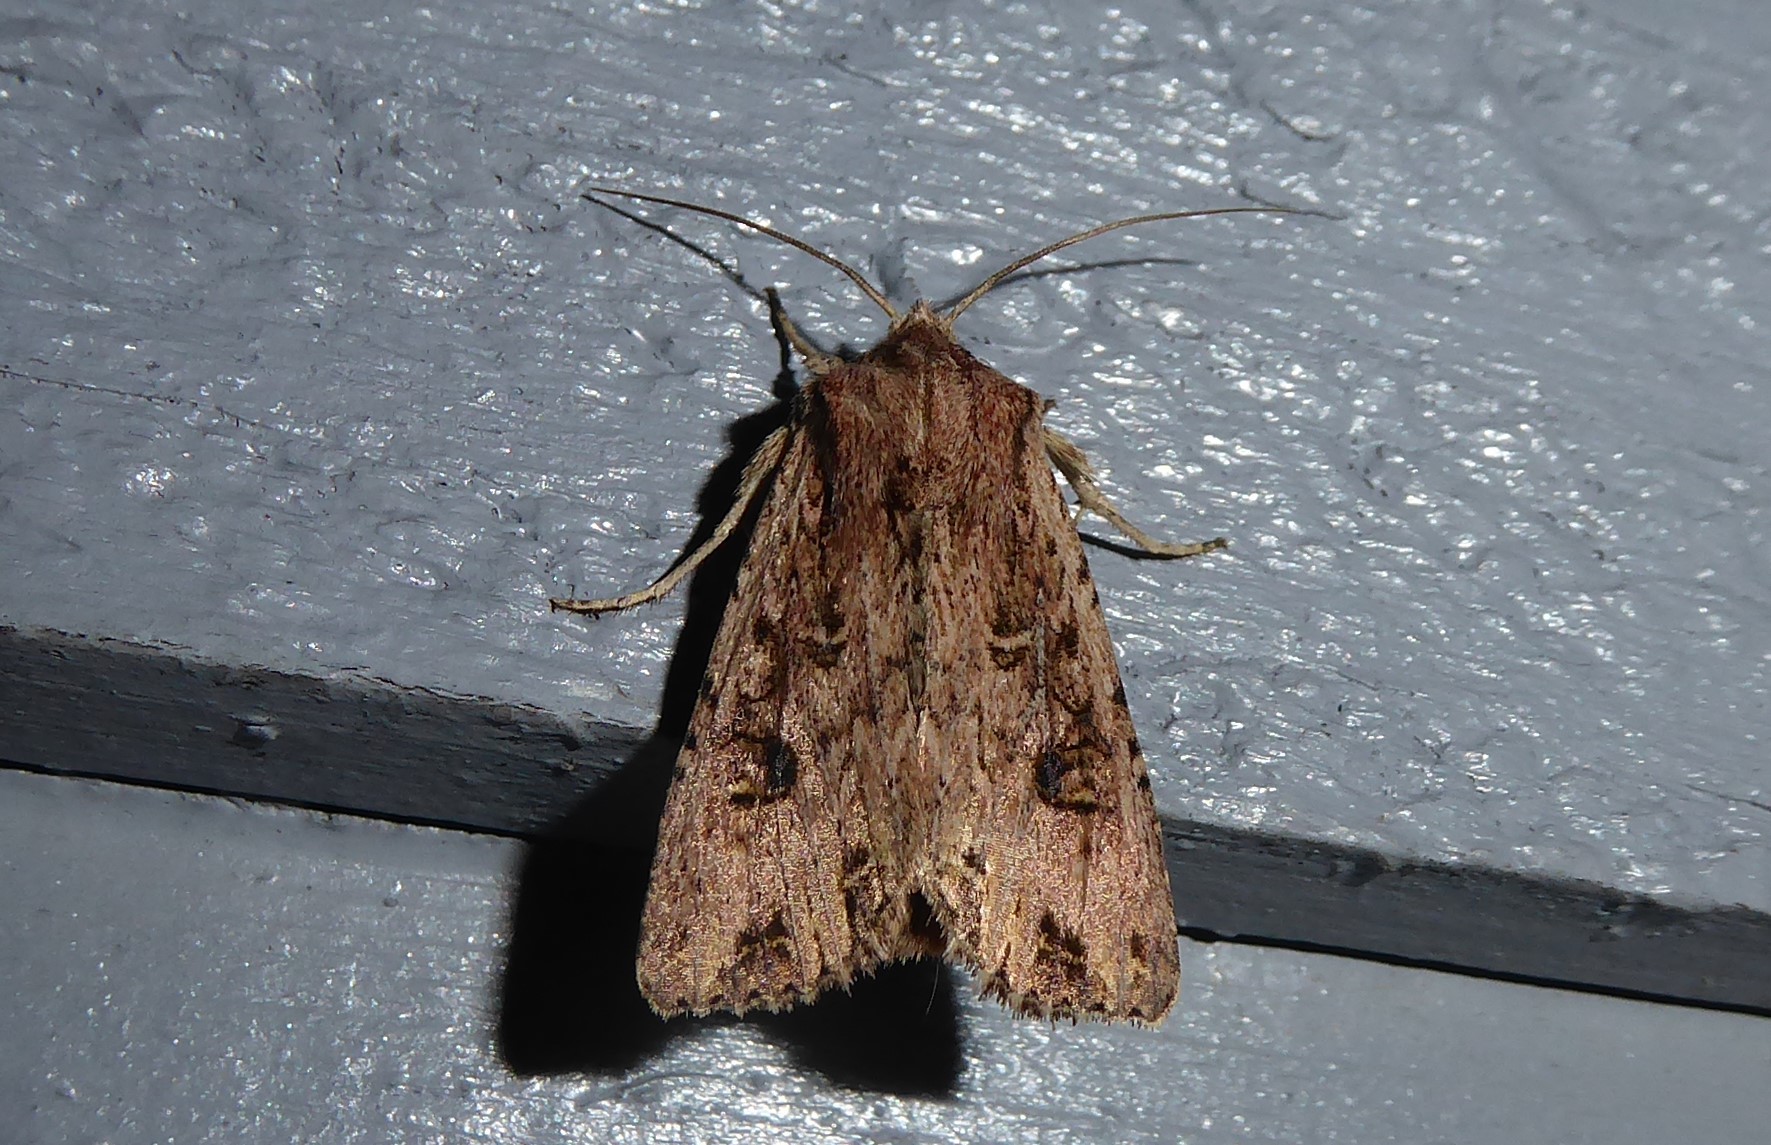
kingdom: Animalia
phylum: Arthropoda
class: Insecta
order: Lepidoptera
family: Noctuidae
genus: Ichneutica
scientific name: Ichneutica lignana
